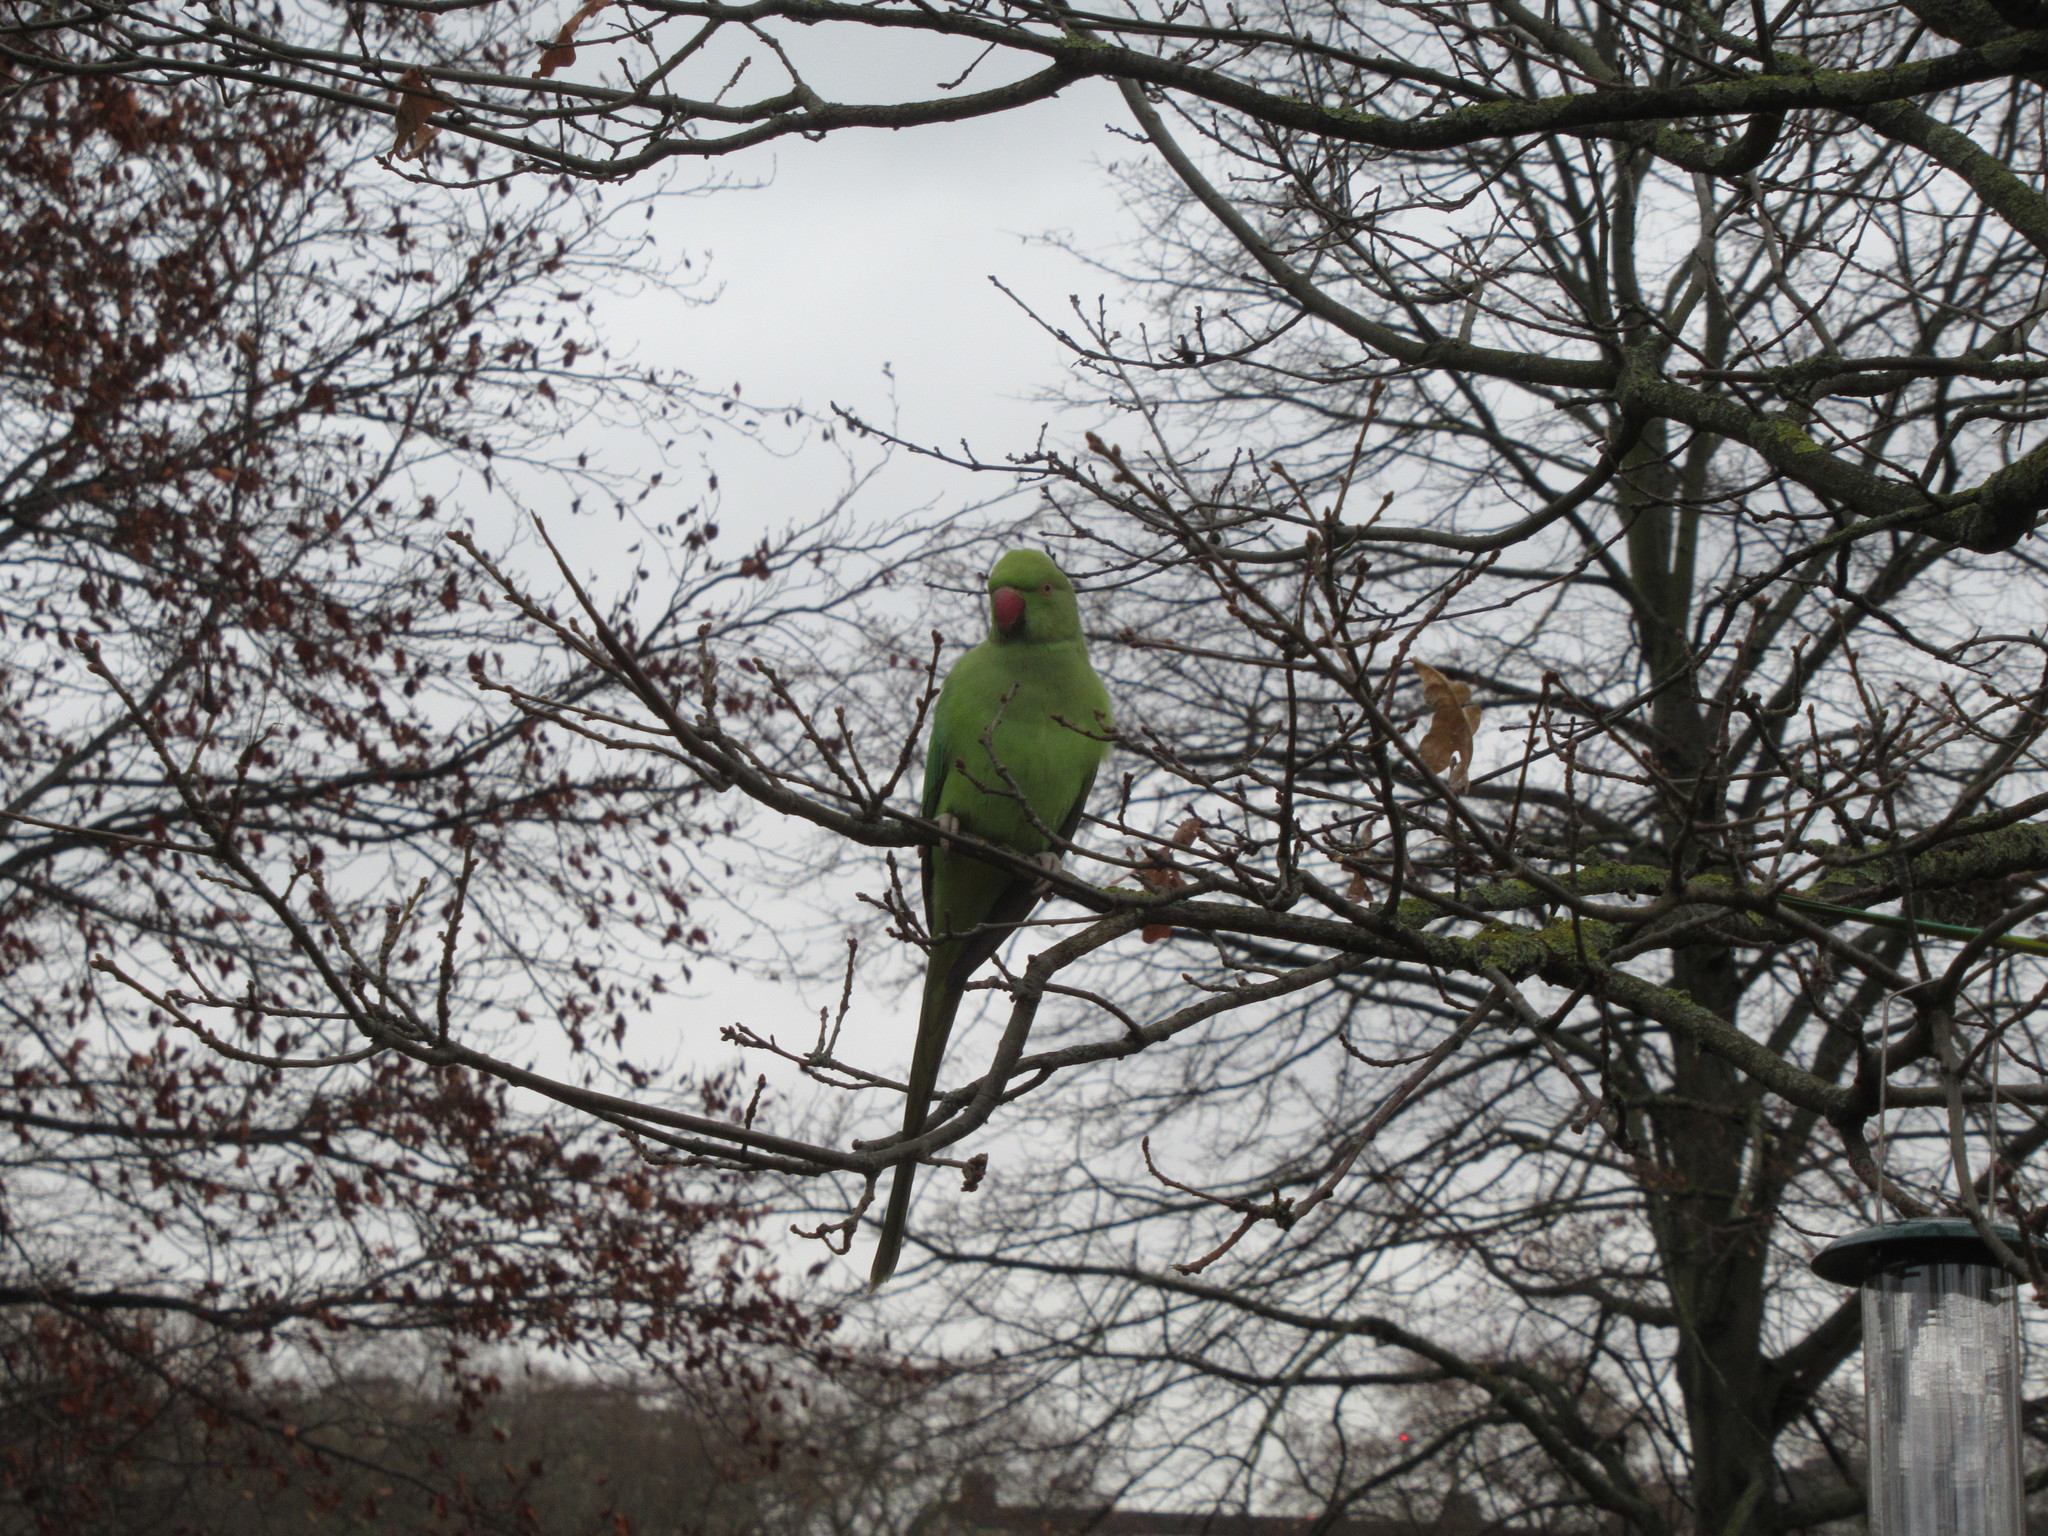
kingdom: Animalia
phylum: Chordata
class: Aves
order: Psittaciformes
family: Psittacidae
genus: Psittacula
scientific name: Psittacula krameri
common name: Rose-ringed parakeet
